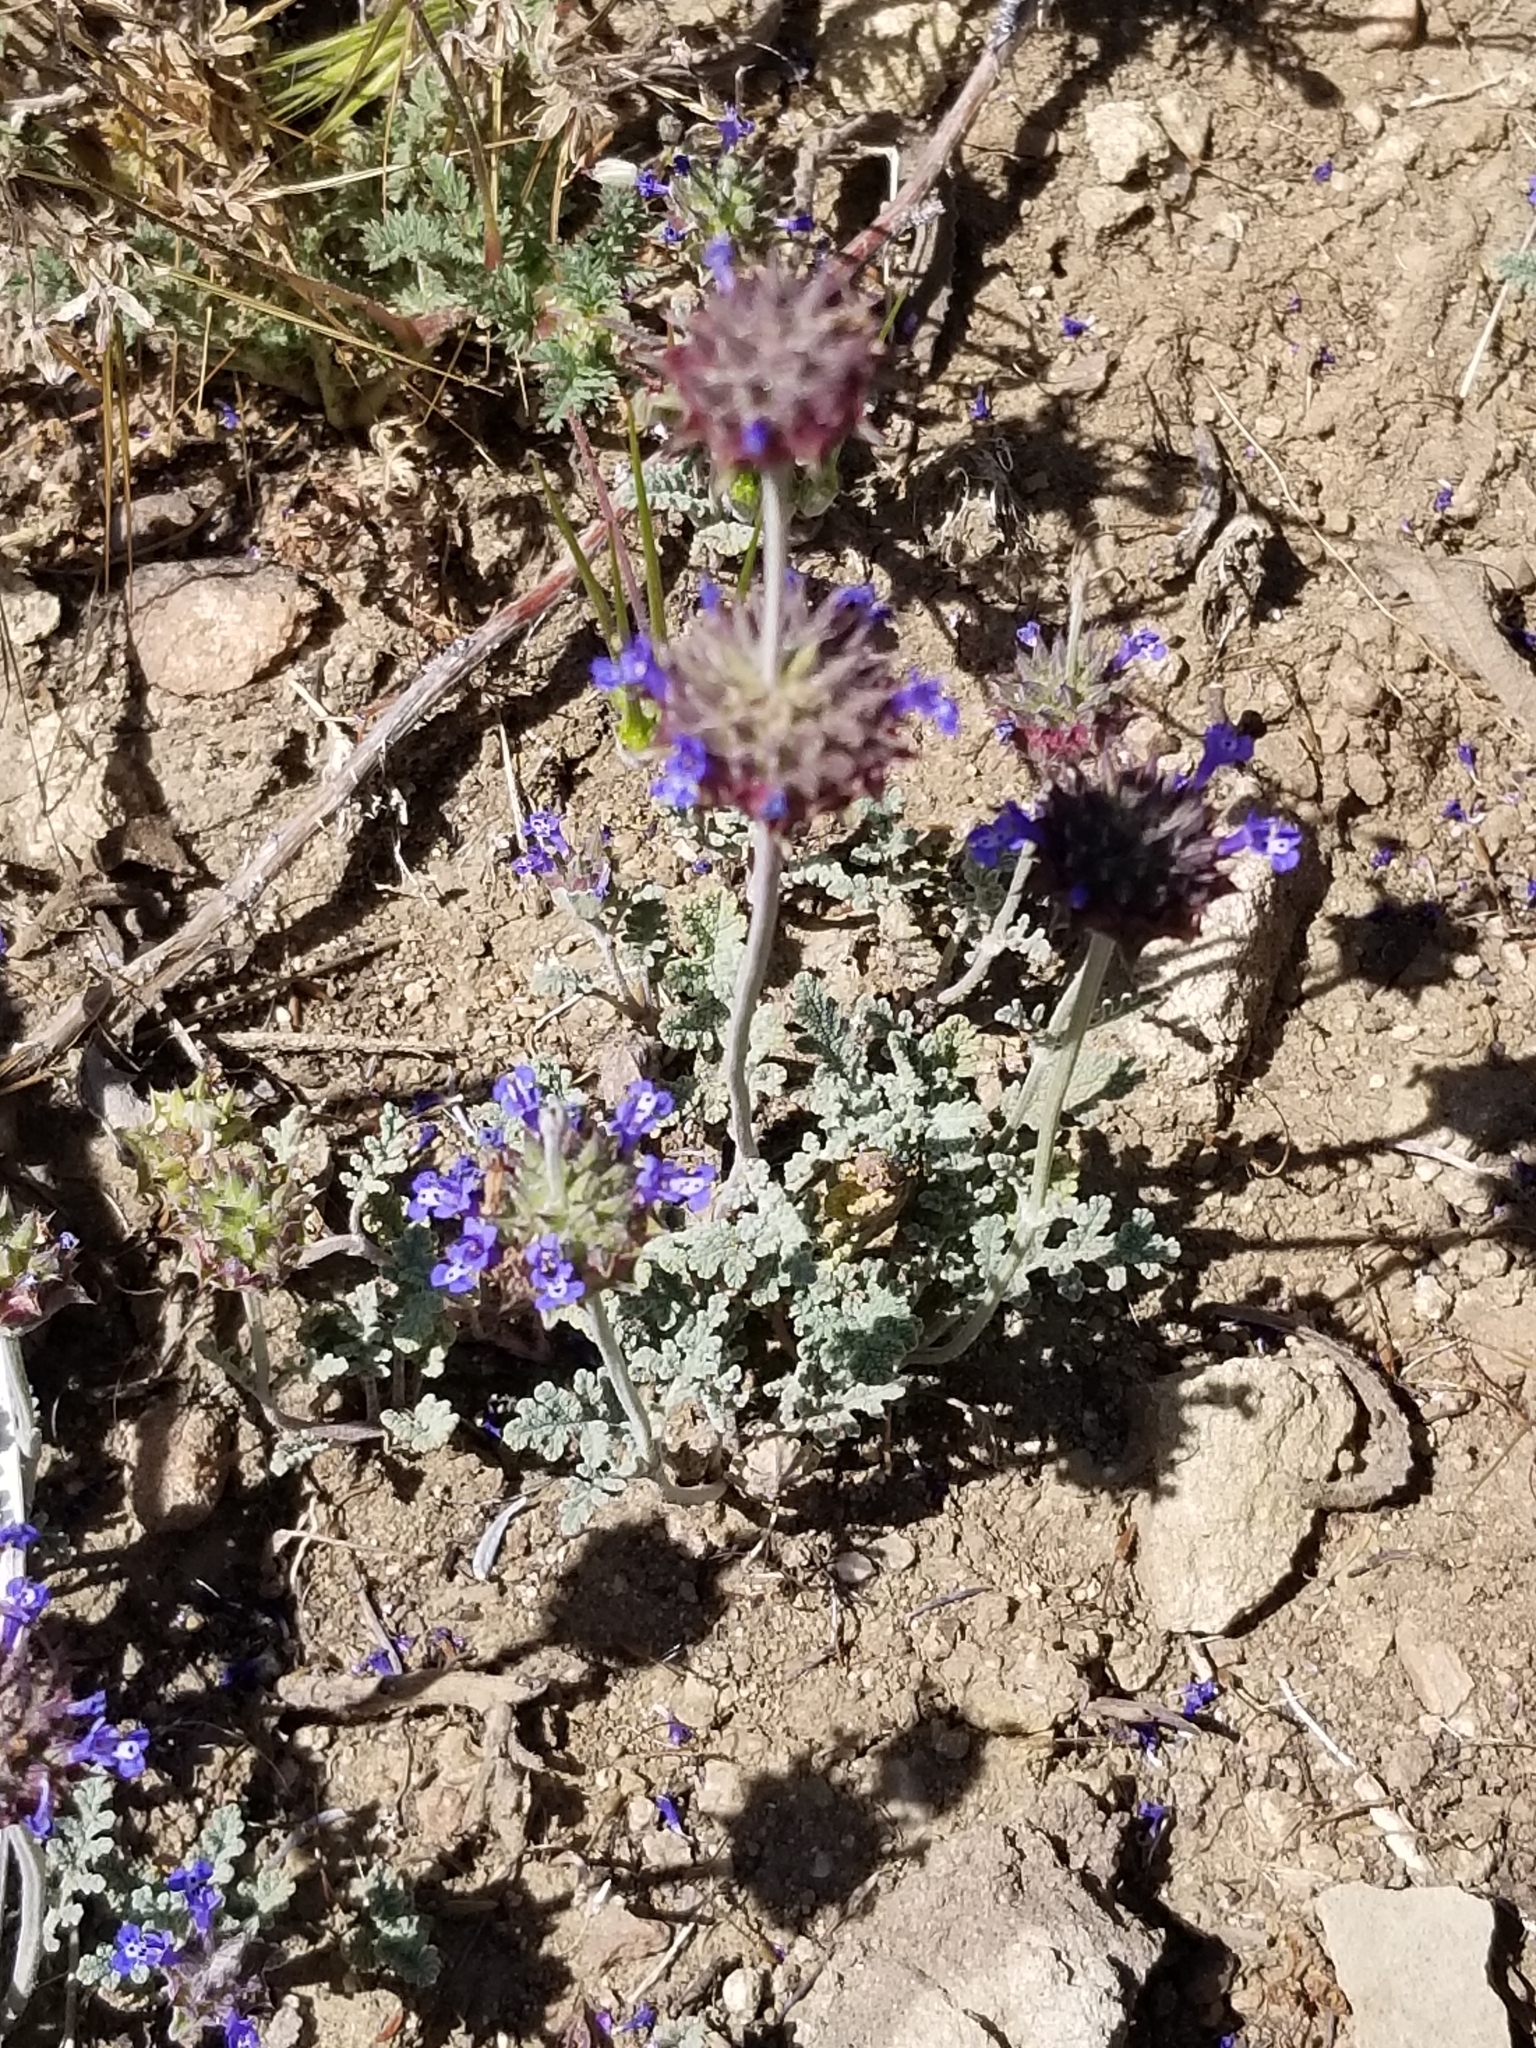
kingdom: Plantae
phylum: Tracheophyta
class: Magnoliopsida
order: Lamiales
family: Lamiaceae
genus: Salvia
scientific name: Salvia columbariae
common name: Chia
